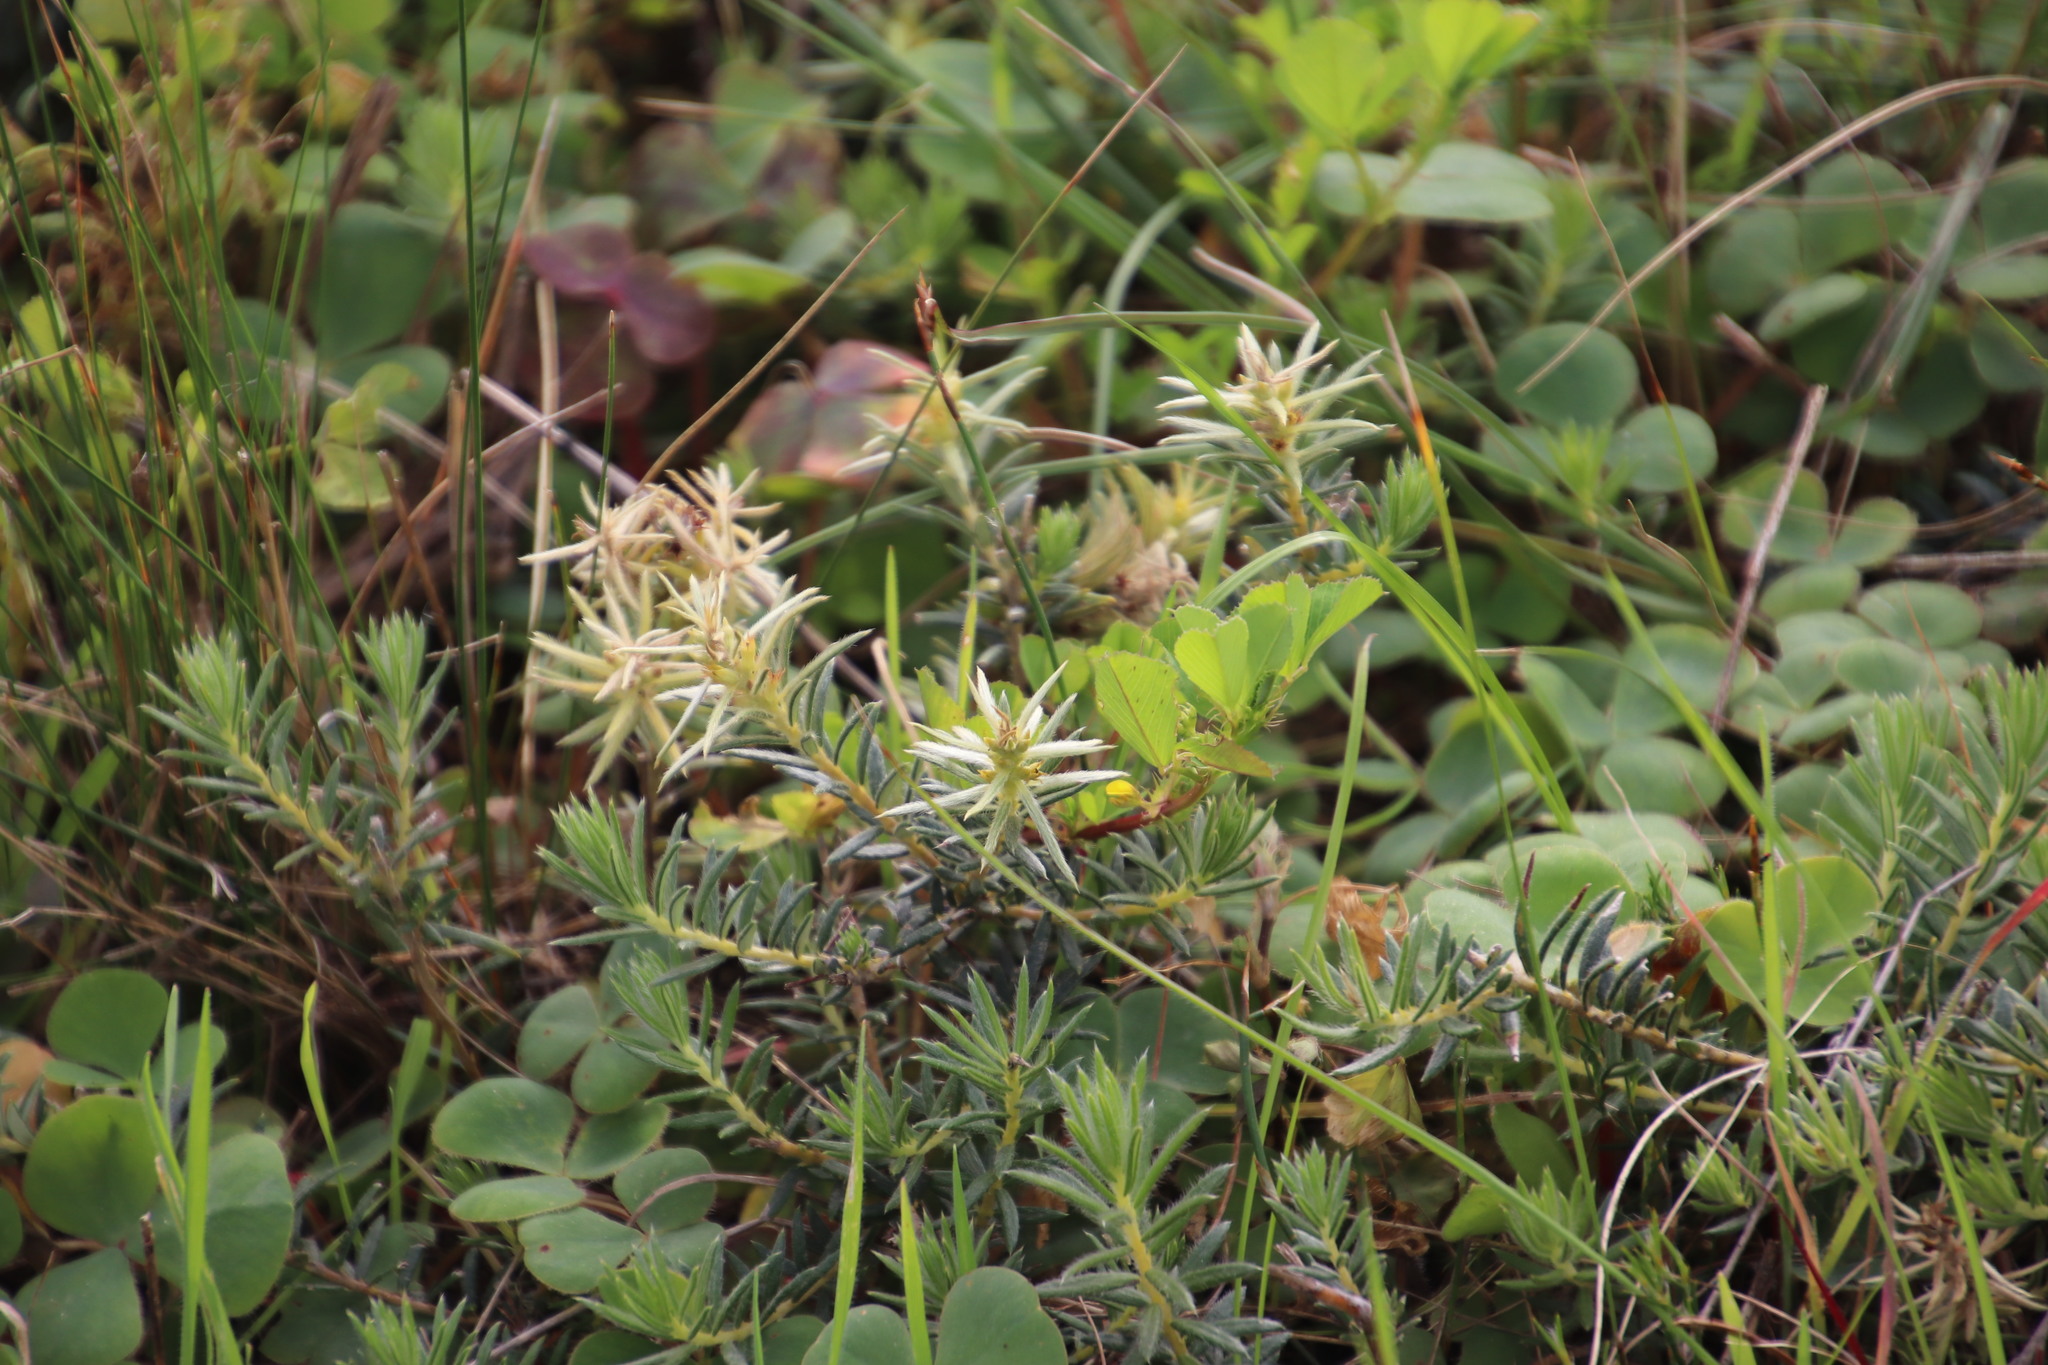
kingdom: Plantae
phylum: Tracheophyta
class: Magnoliopsida
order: Rosales
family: Rhamnaceae
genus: Phylica
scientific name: Phylica plumosa
